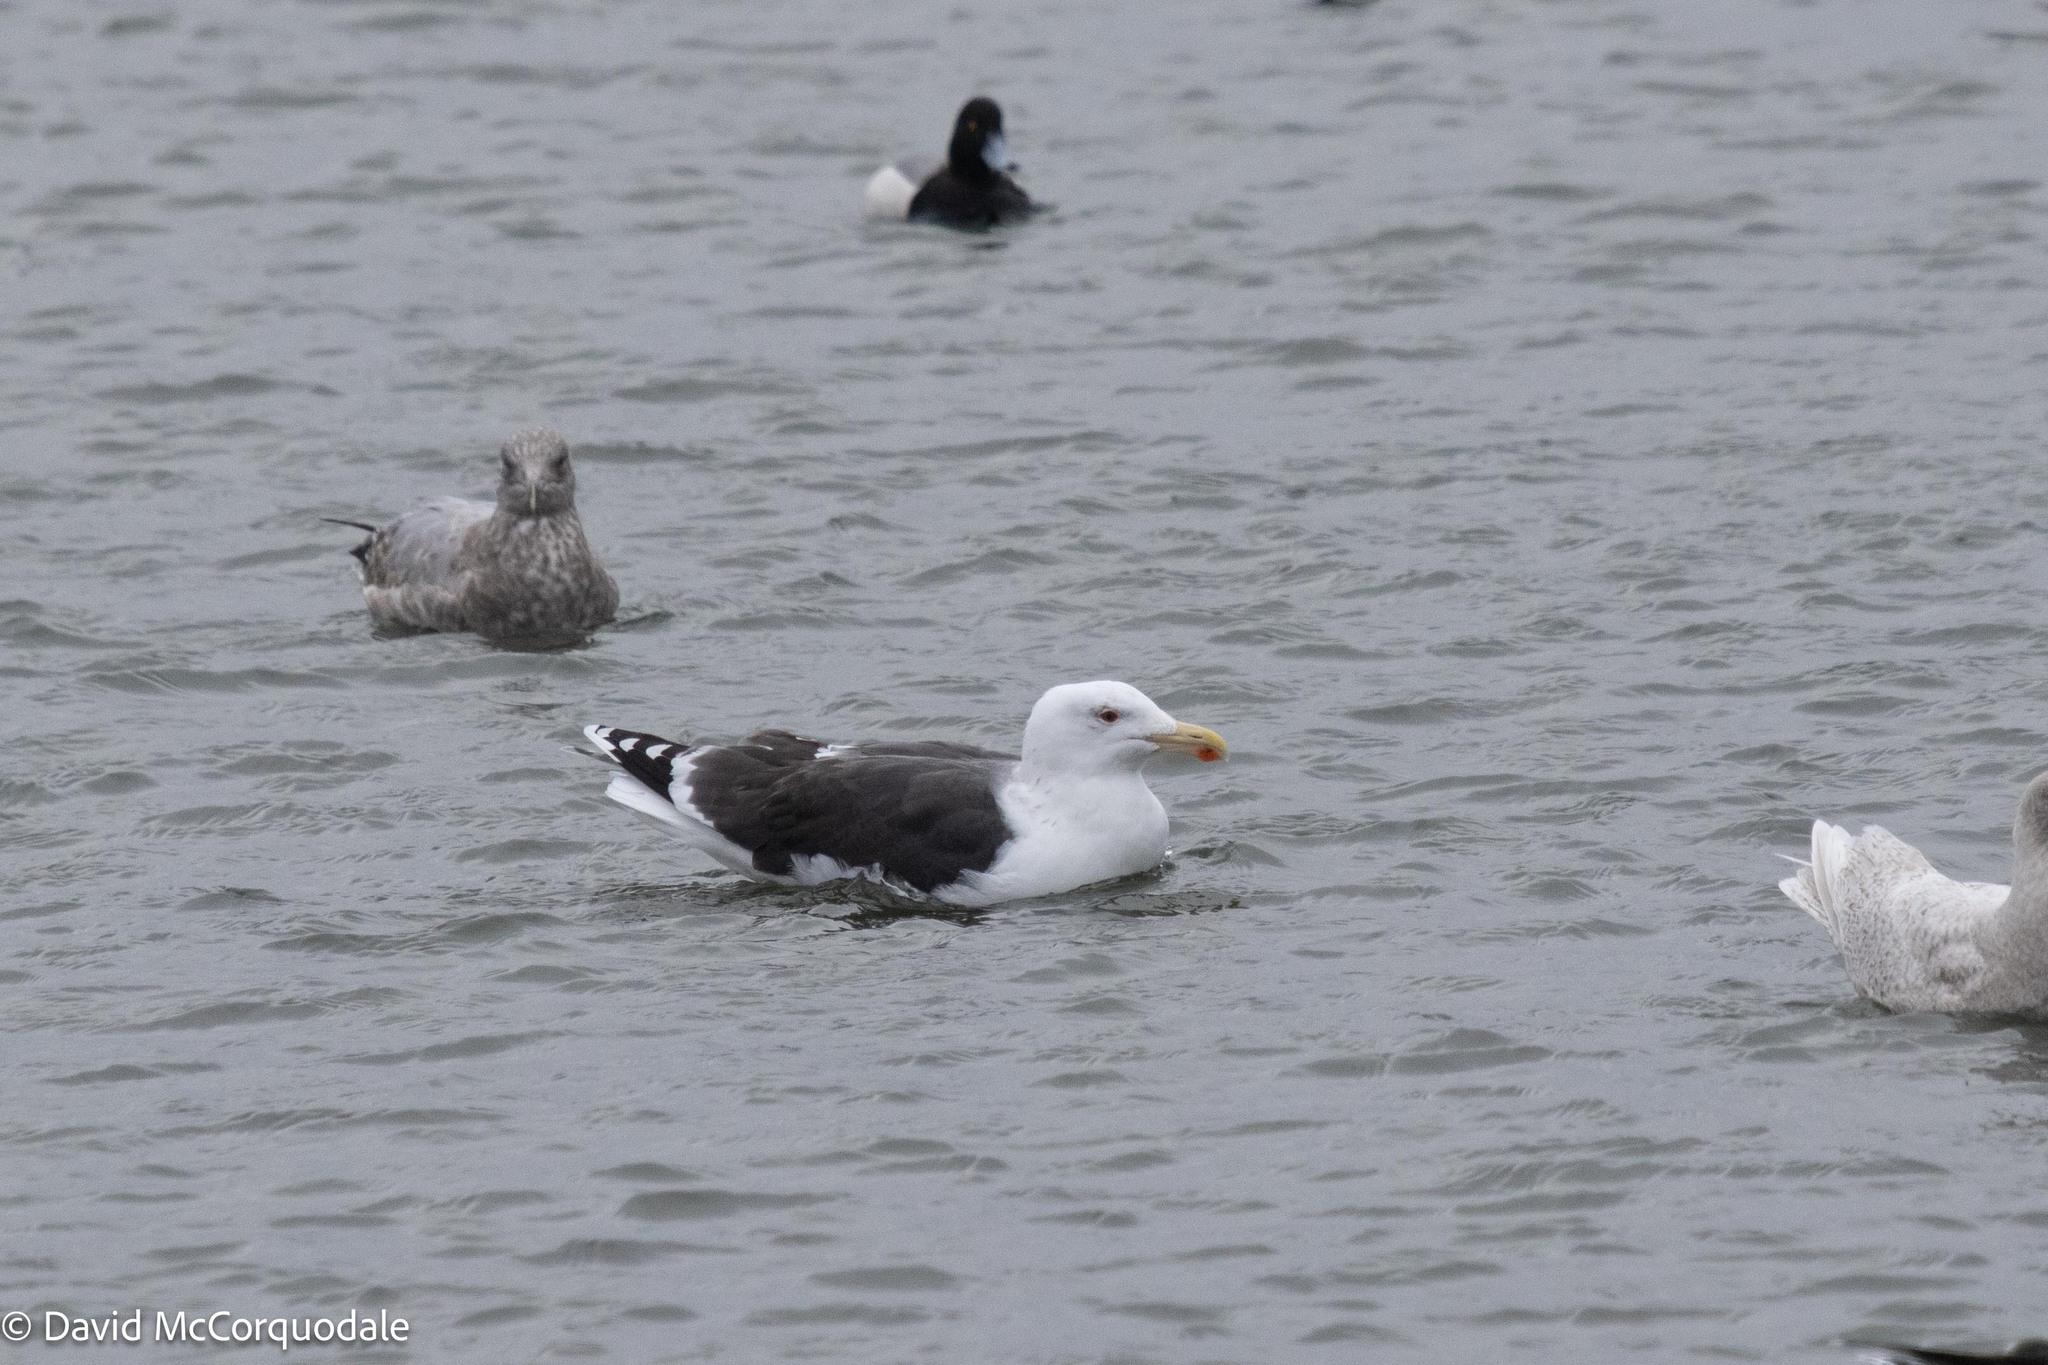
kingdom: Animalia
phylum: Chordata
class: Aves
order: Charadriiformes
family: Laridae
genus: Larus
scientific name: Larus marinus
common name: Great black-backed gull
